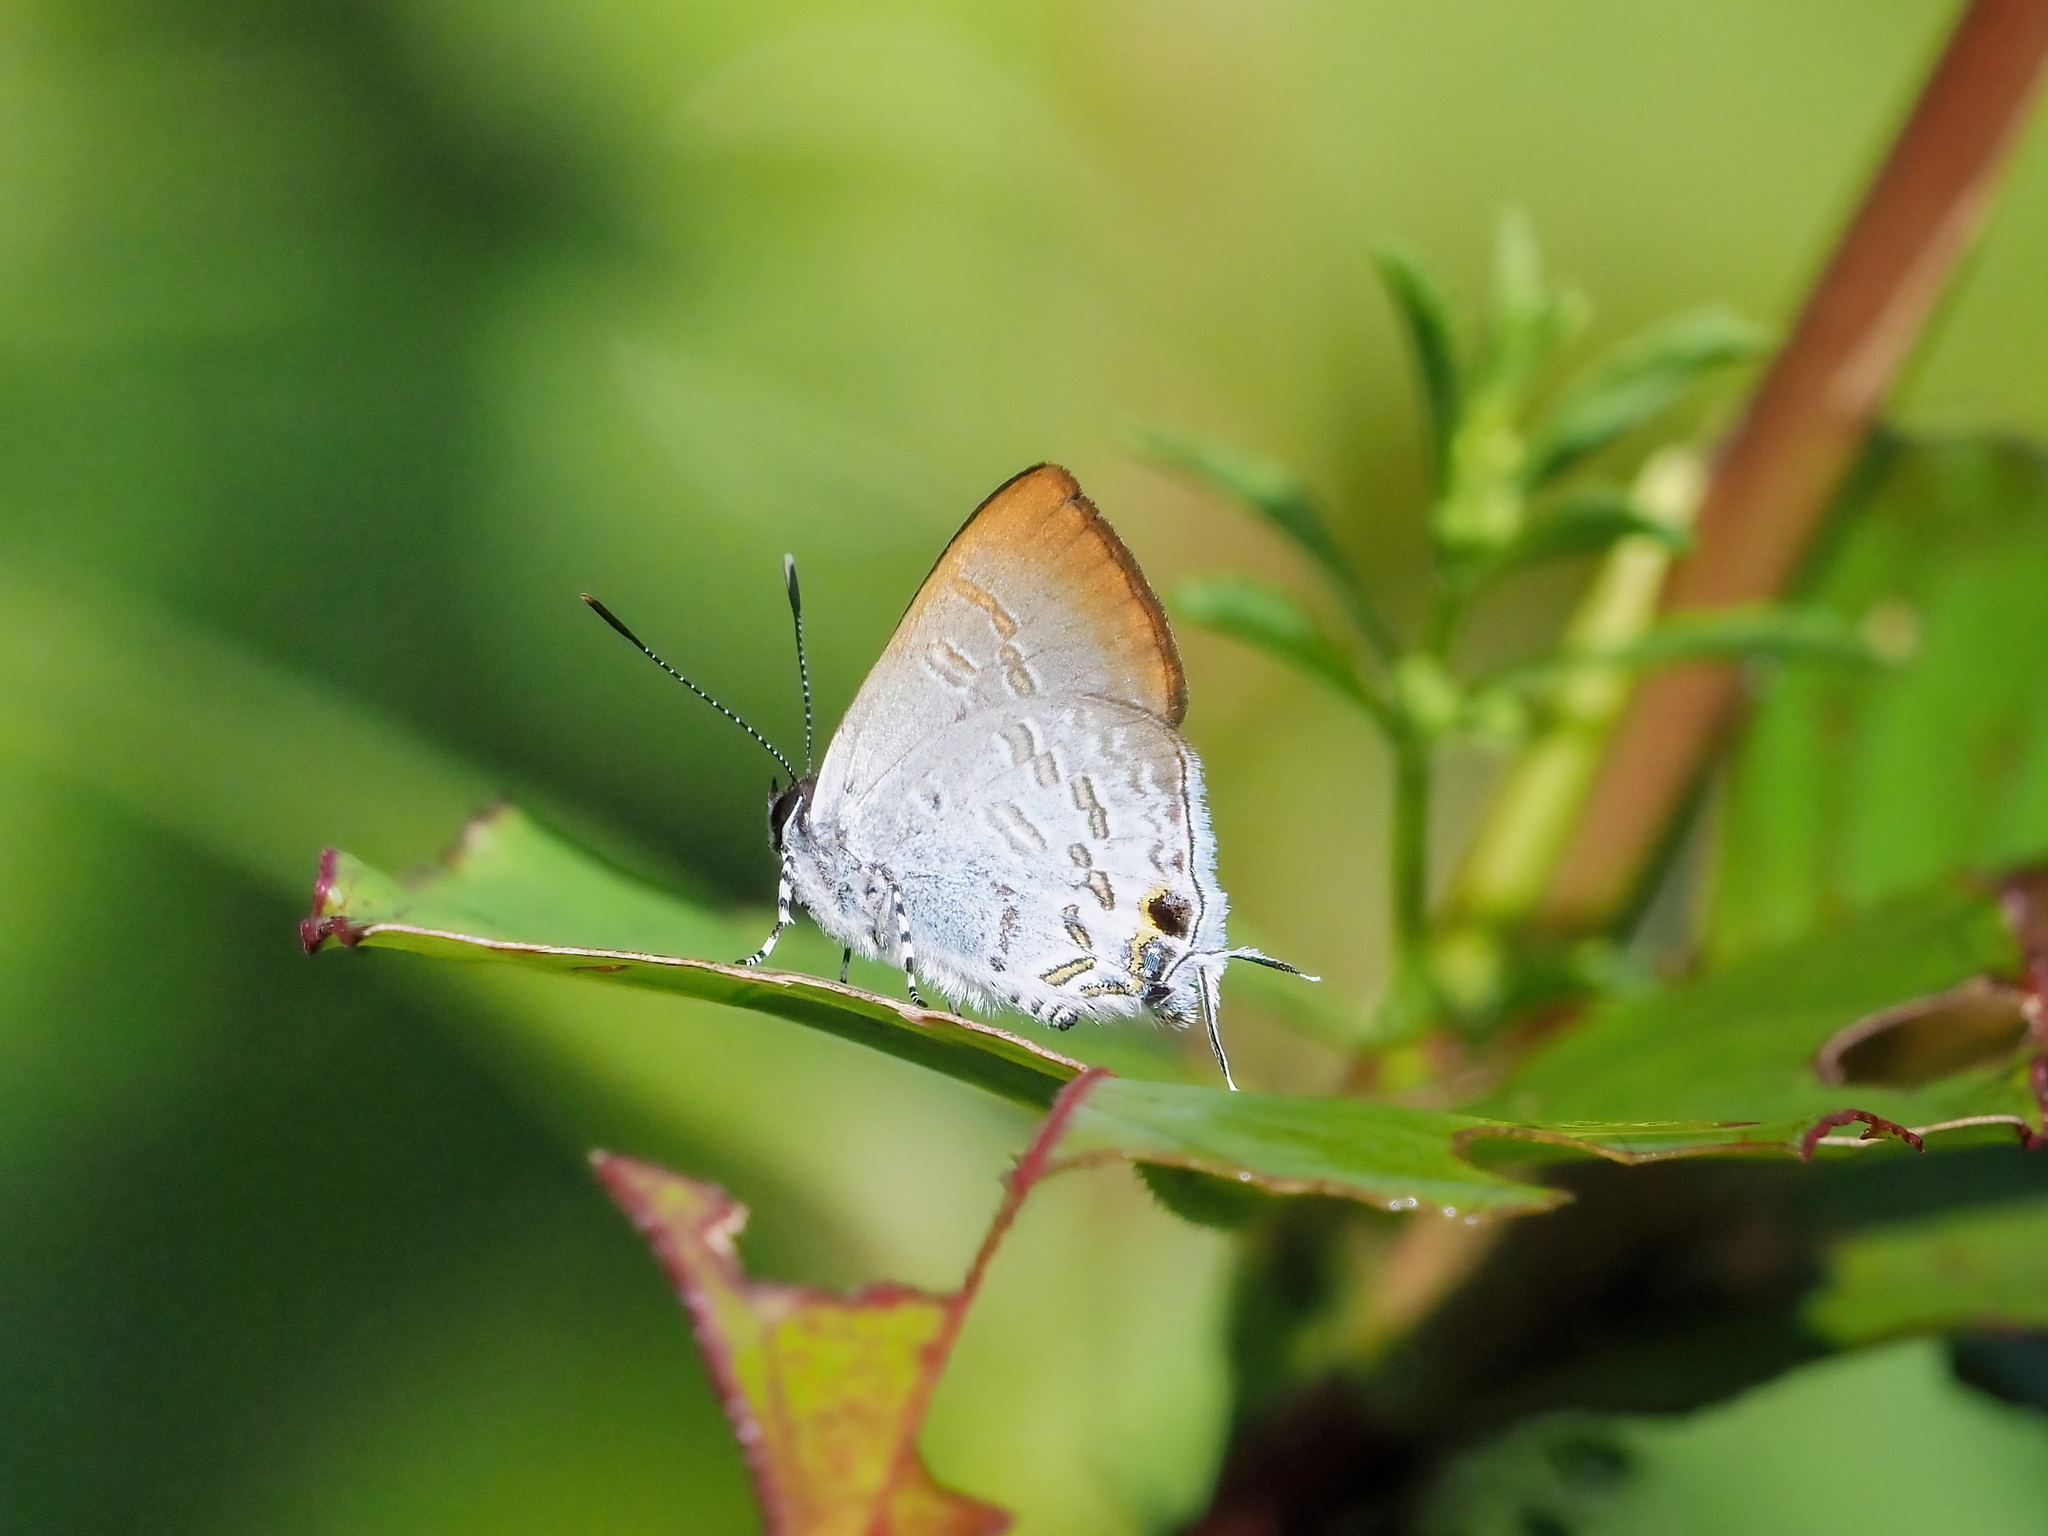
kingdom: Animalia
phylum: Arthropoda
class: Insecta
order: Lepidoptera
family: Lycaenidae
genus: Sinthusa
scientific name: Sinthusa privata
